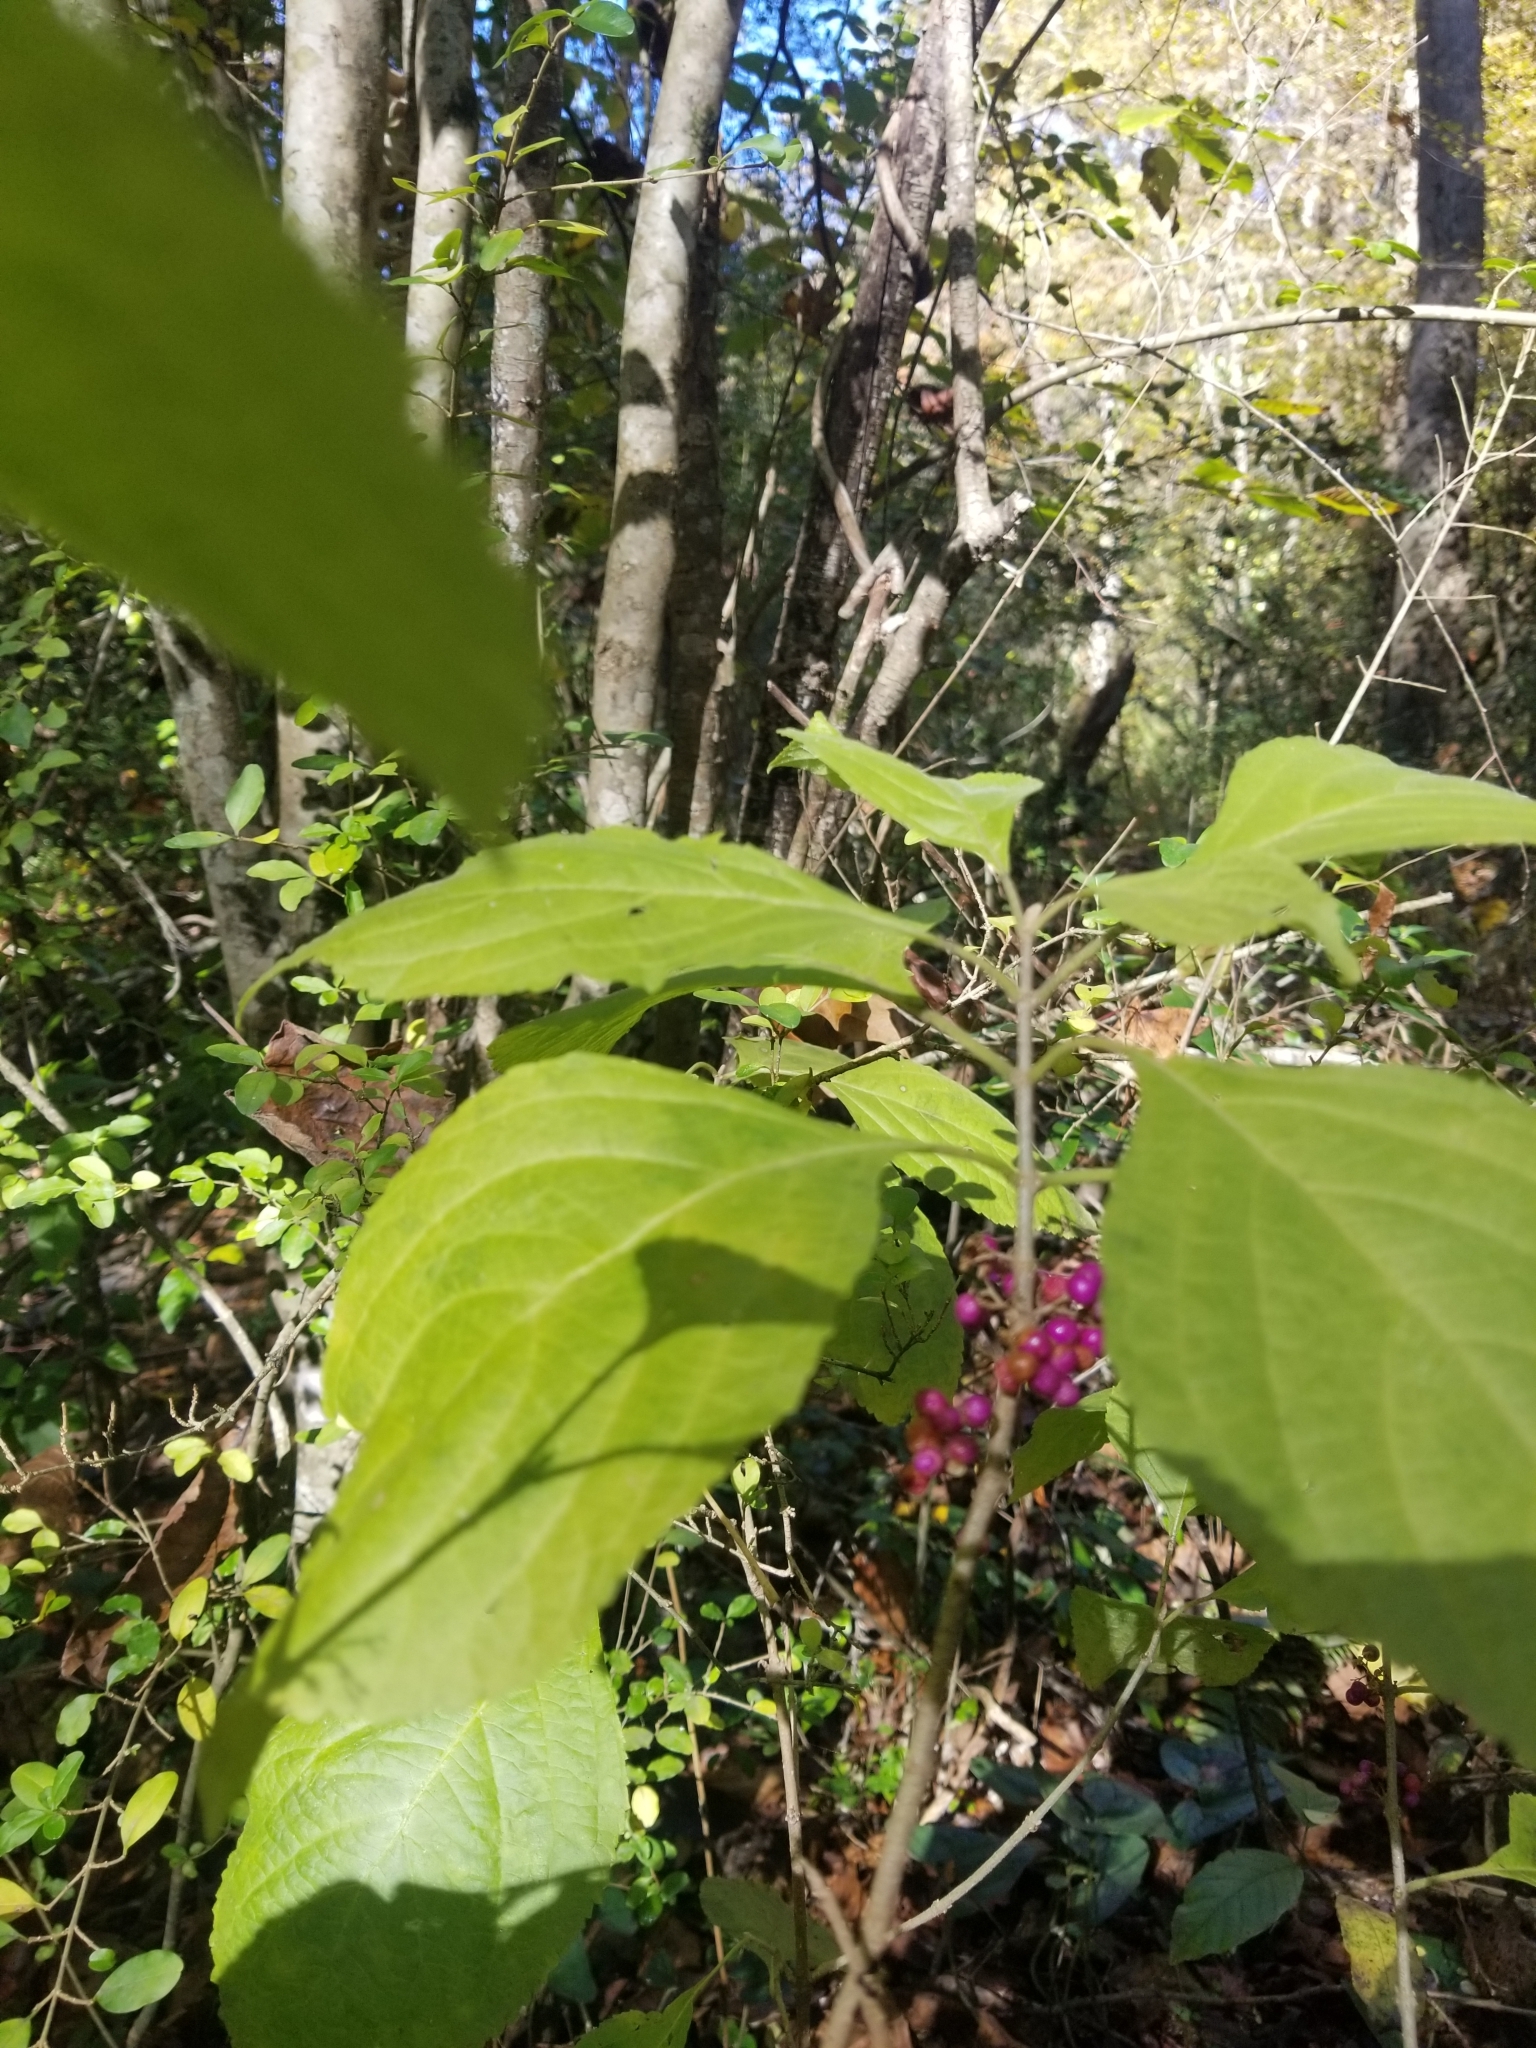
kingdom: Plantae
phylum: Tracheophyta
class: Magnoliopsida
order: Lamiales
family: Lamiaceae
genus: Callicarpa
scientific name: Callicarpa americana
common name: American beautyberry
